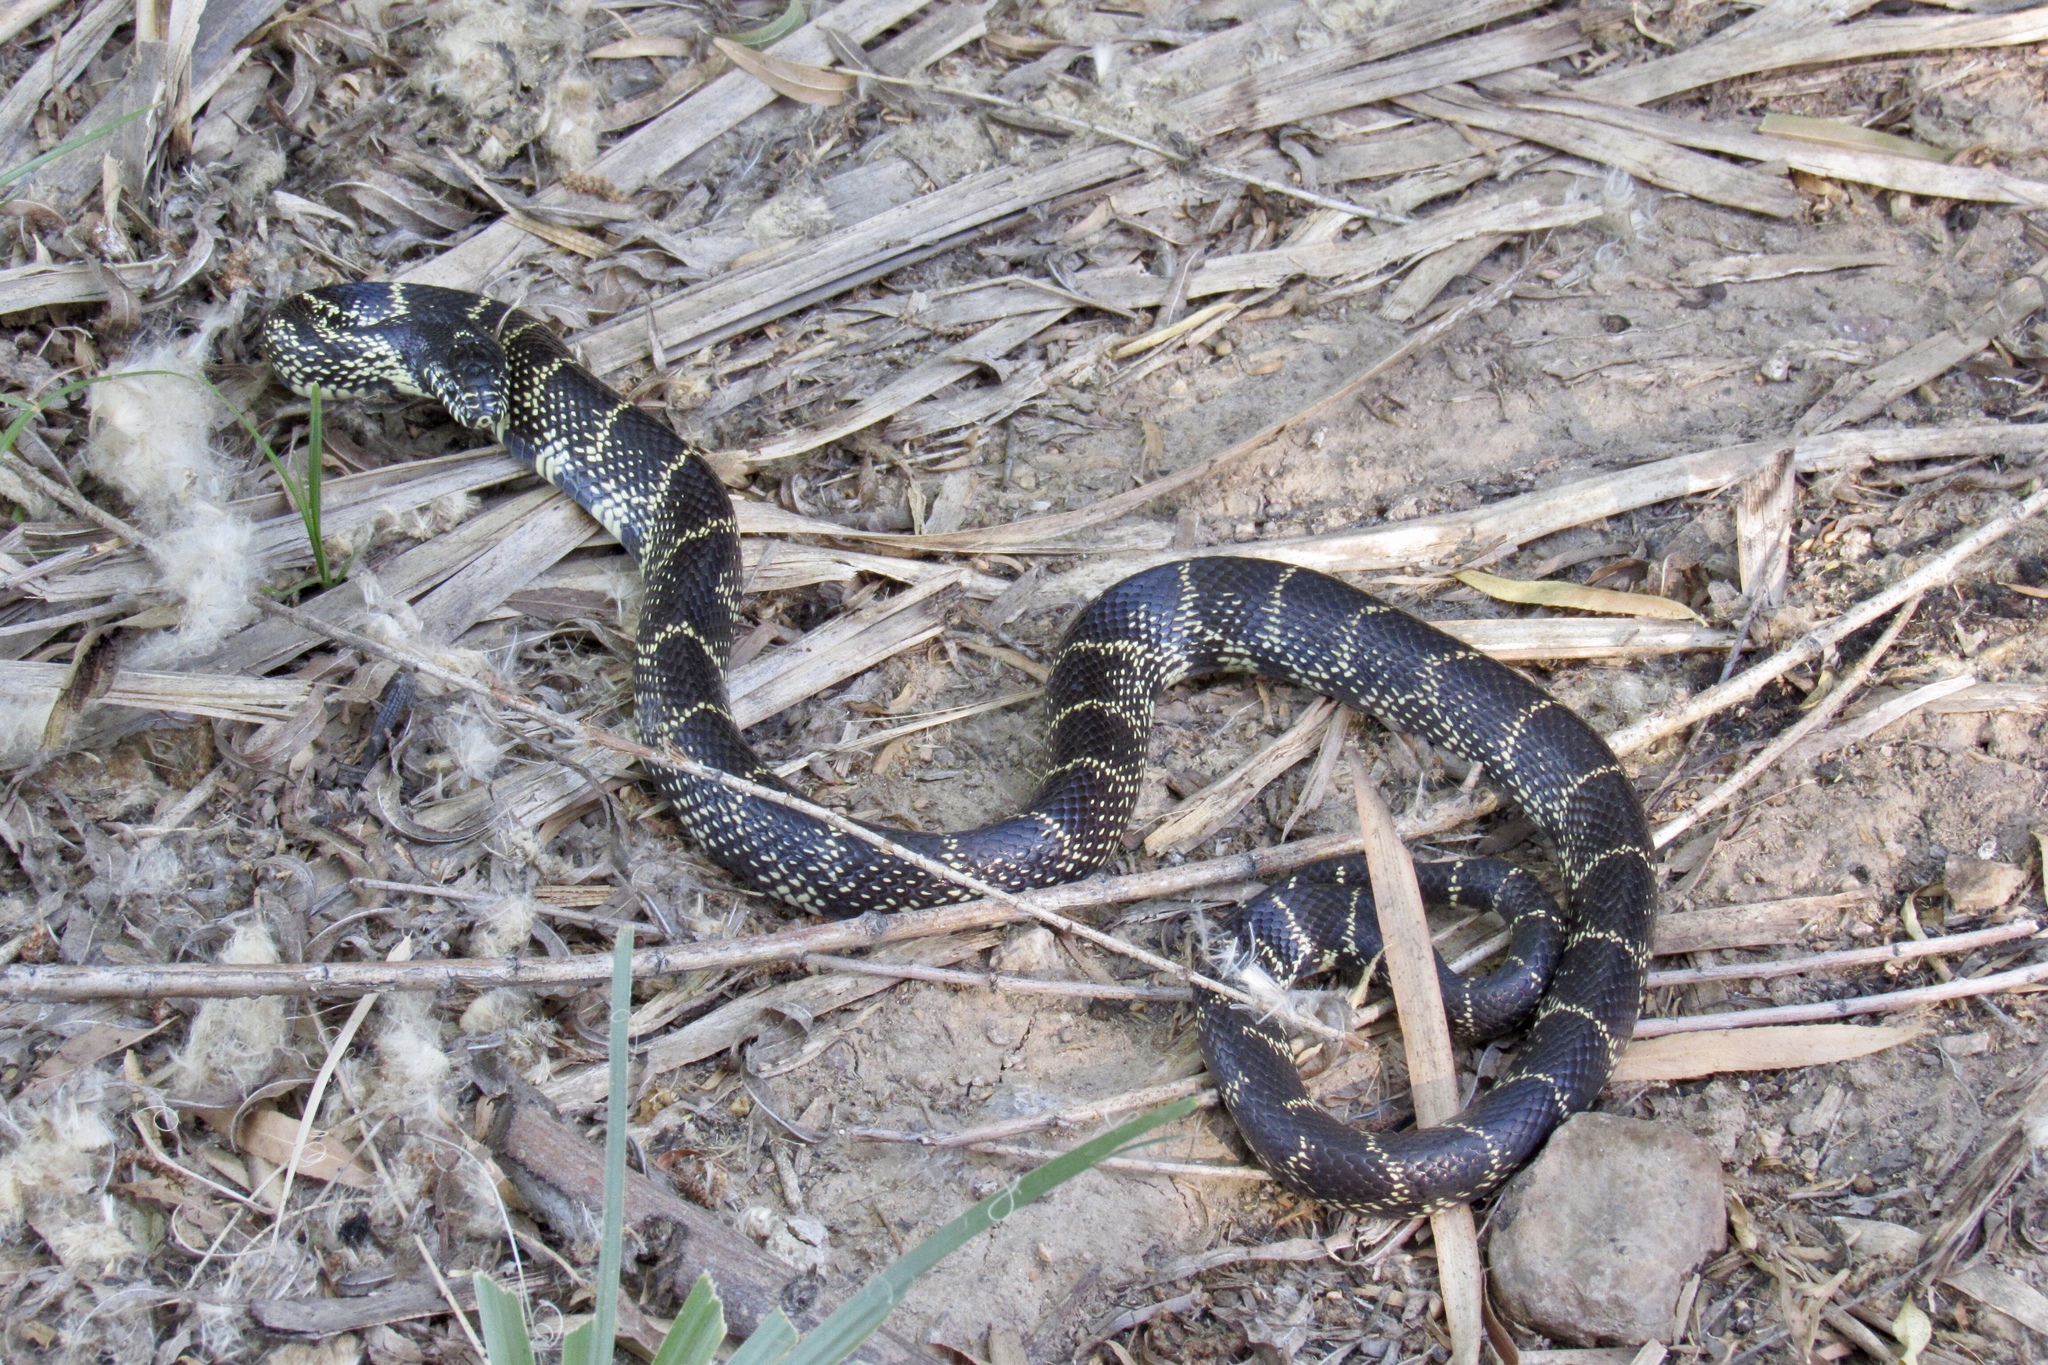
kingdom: Animalia
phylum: Chordata
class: Squamata
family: Colubridae
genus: Lampropeltis
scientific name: Lampropeltis splendida
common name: Desert kingsnake
